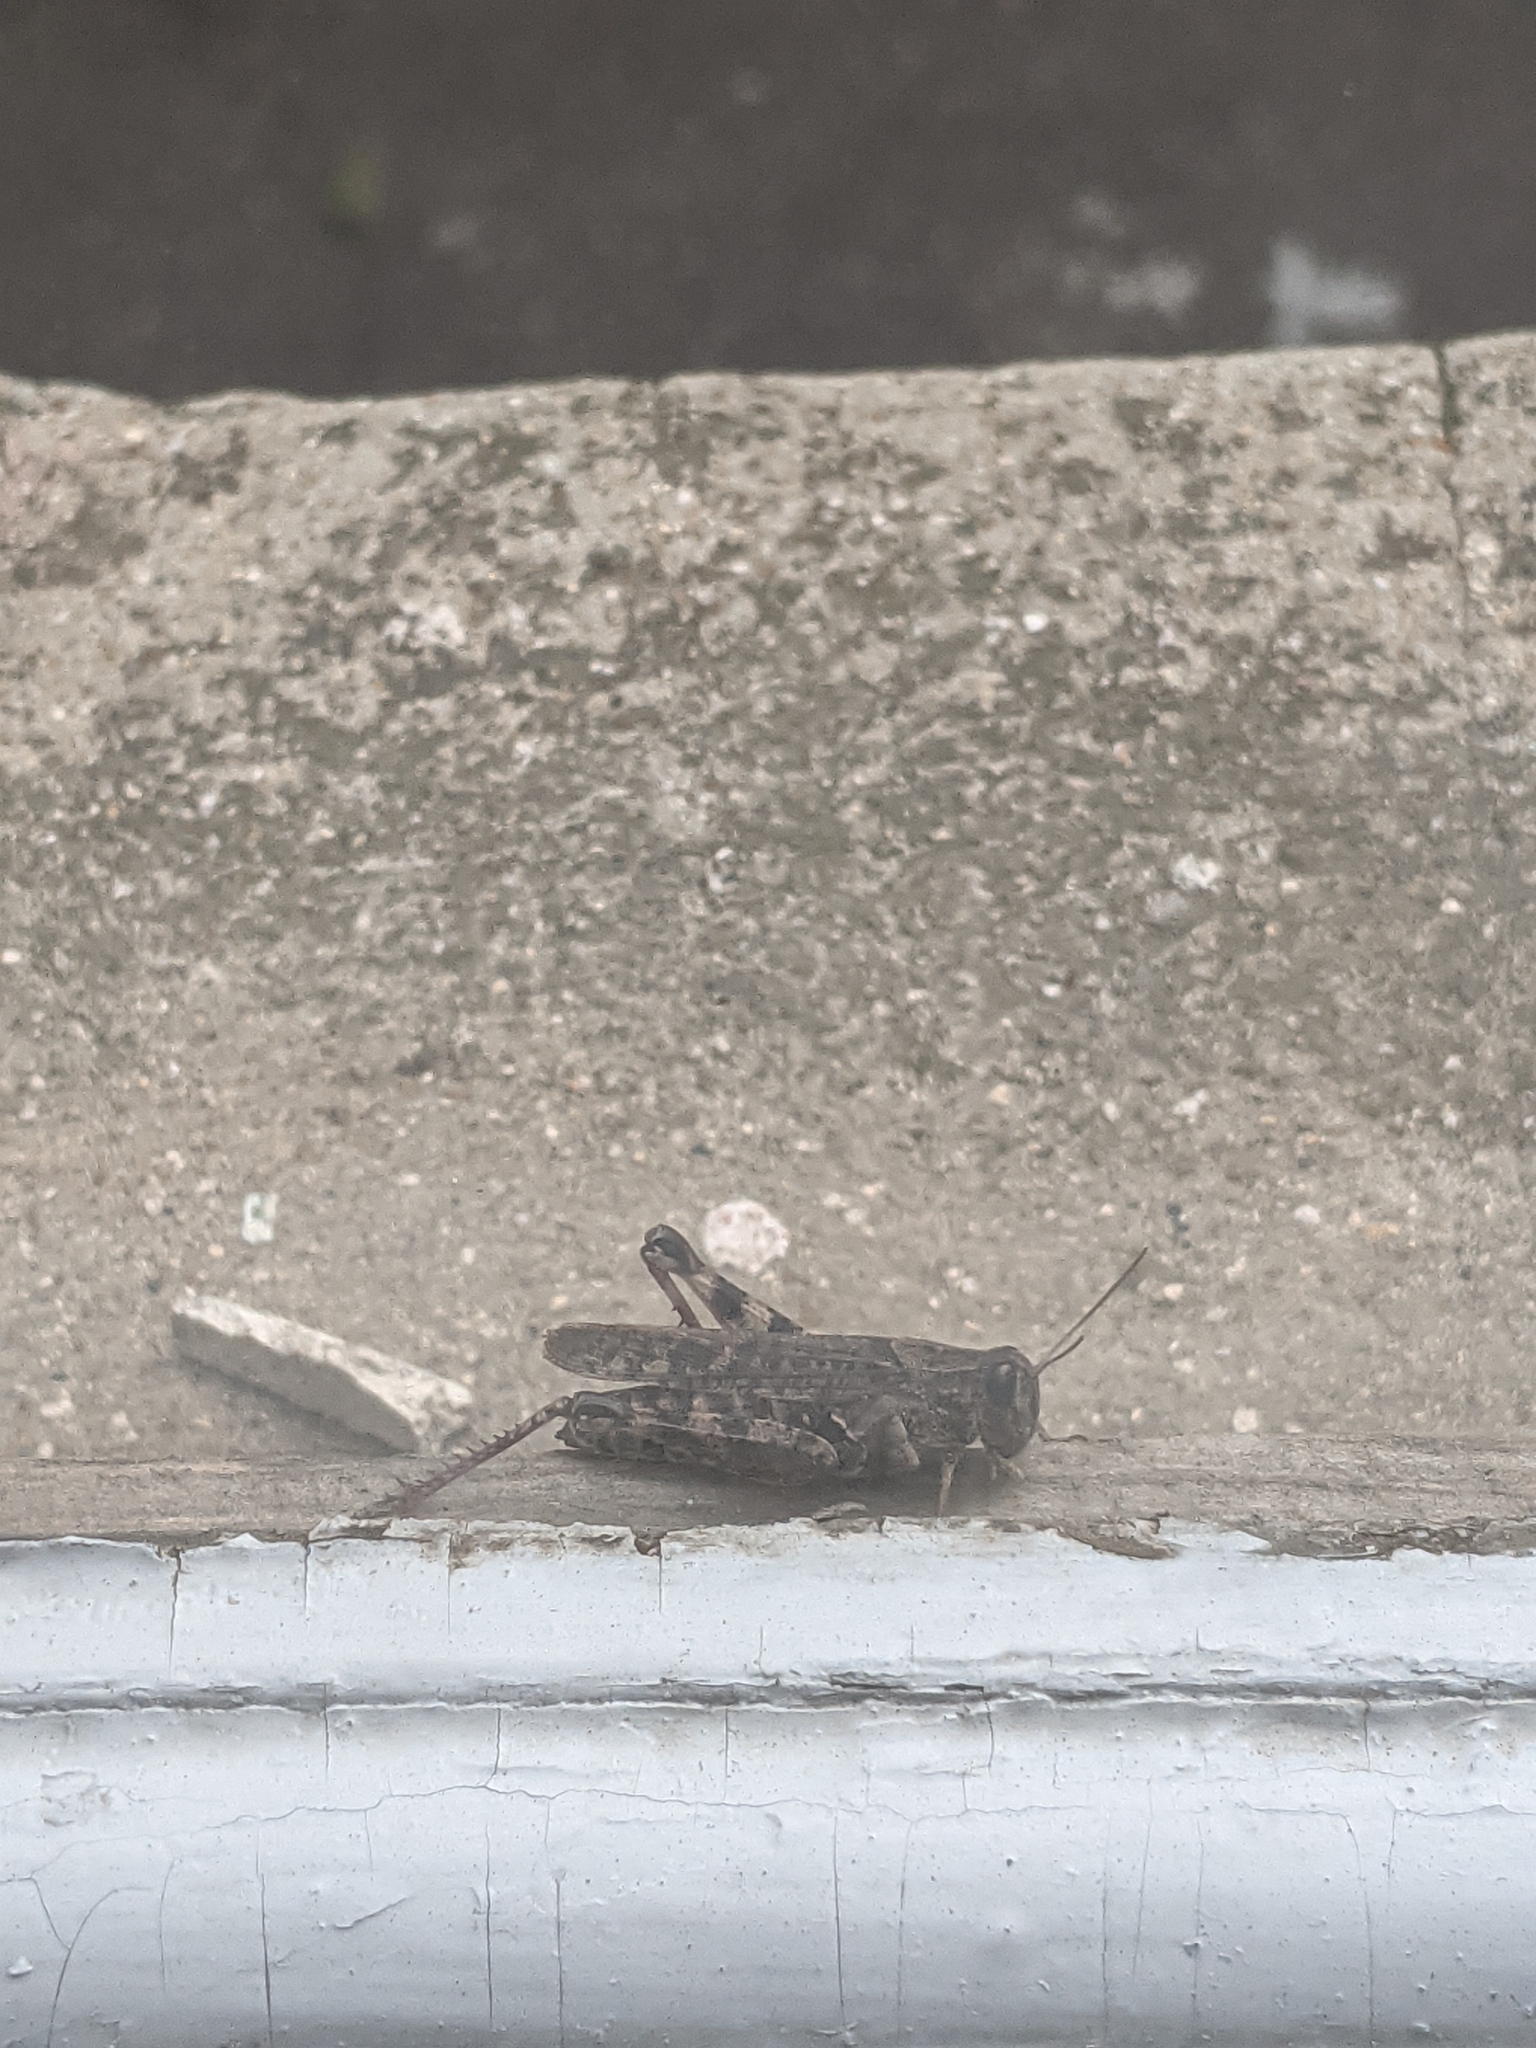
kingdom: Animalia
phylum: Arthropoda
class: Insecta
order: Orthoptera
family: Acrididae
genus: Calliptamus
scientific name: Calliptamus italicus
